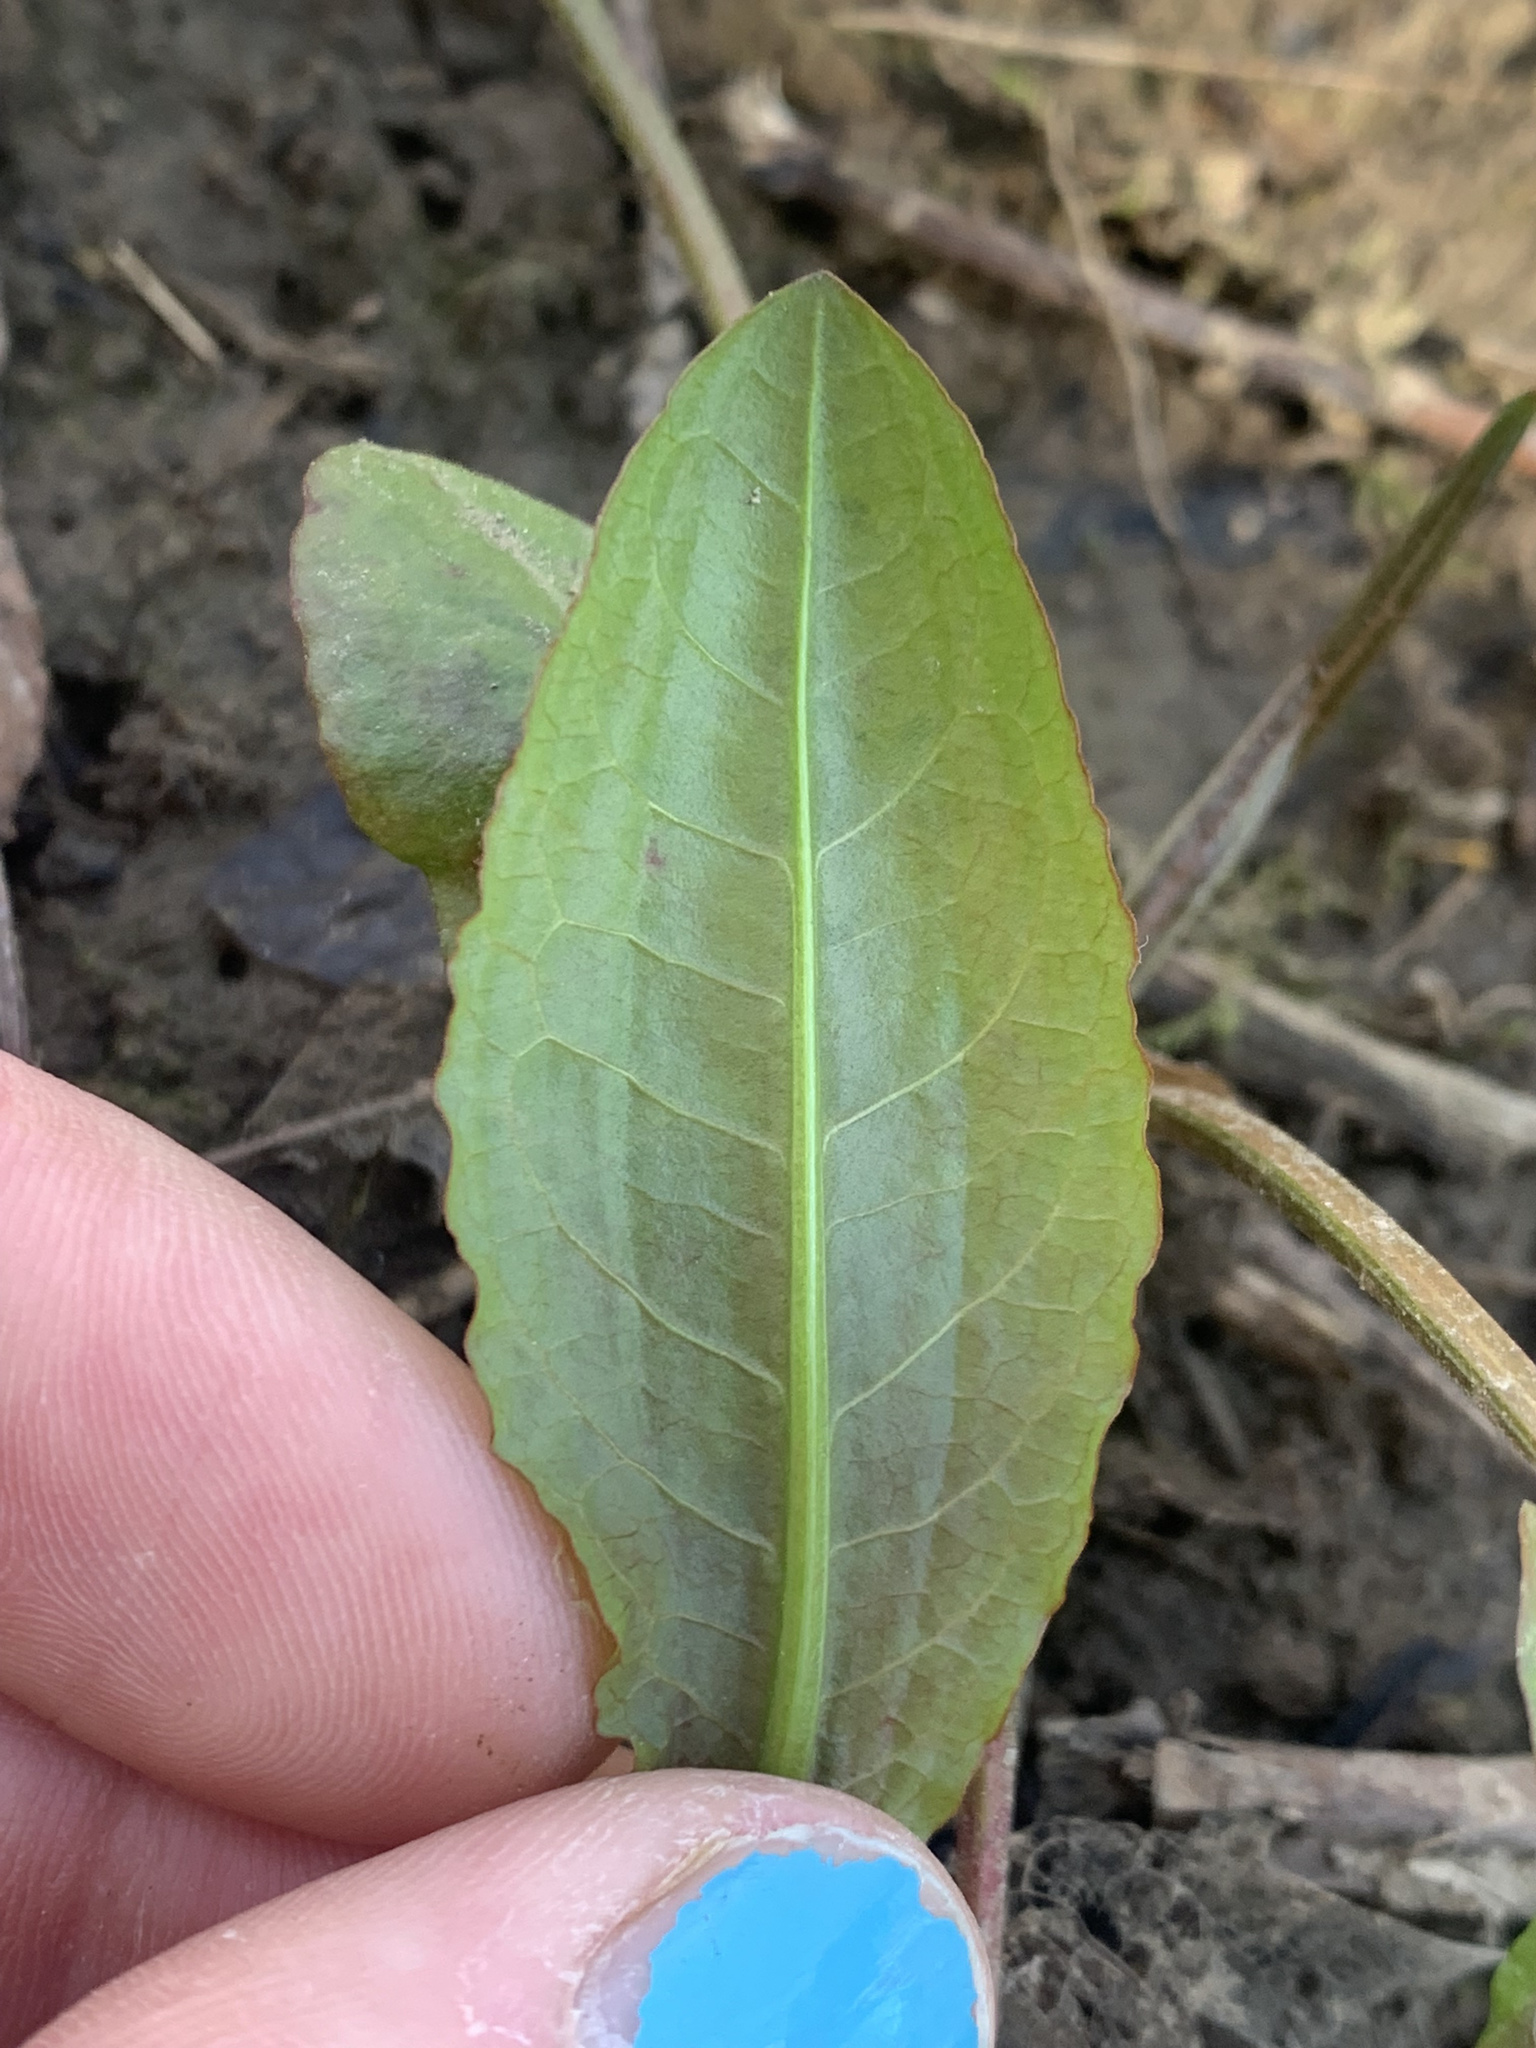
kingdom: Plantae
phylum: Tracheophyta
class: Magnoliopsida
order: Caryophyllales
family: Polygonaceae
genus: Rumex
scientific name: Rumex obtusifolius
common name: Bitter dock
